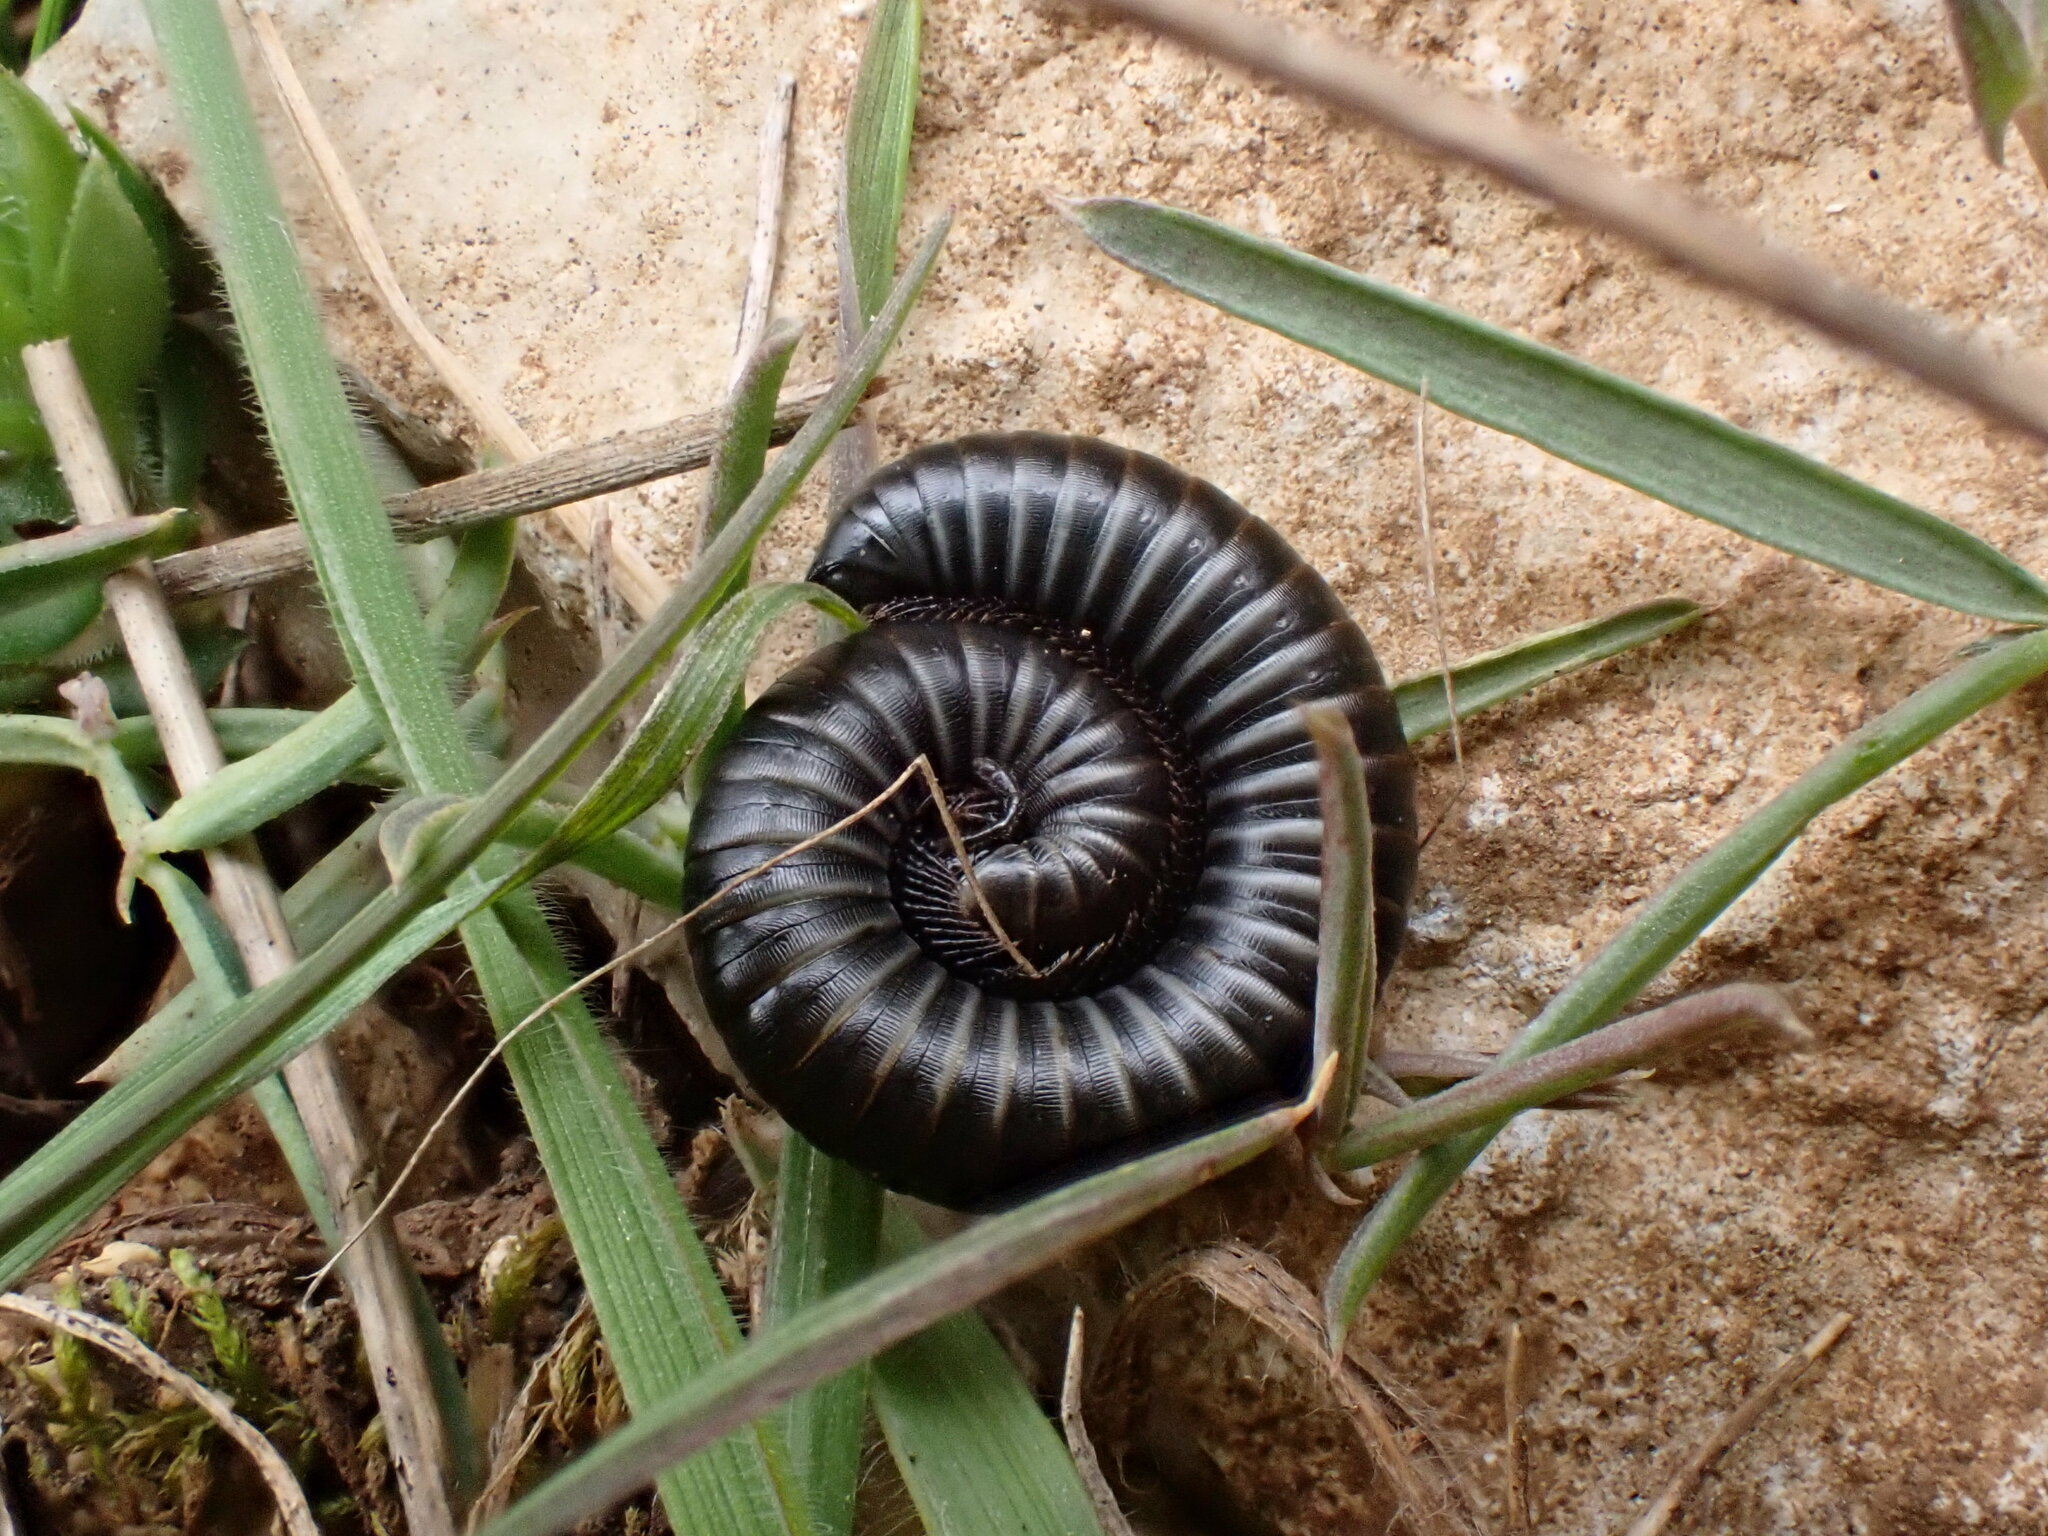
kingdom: Animalia
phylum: Arthropoda
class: Diplopoda
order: Julida
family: Julidae
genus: Ommatoiulus
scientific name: Ommatoiulus rutilans
